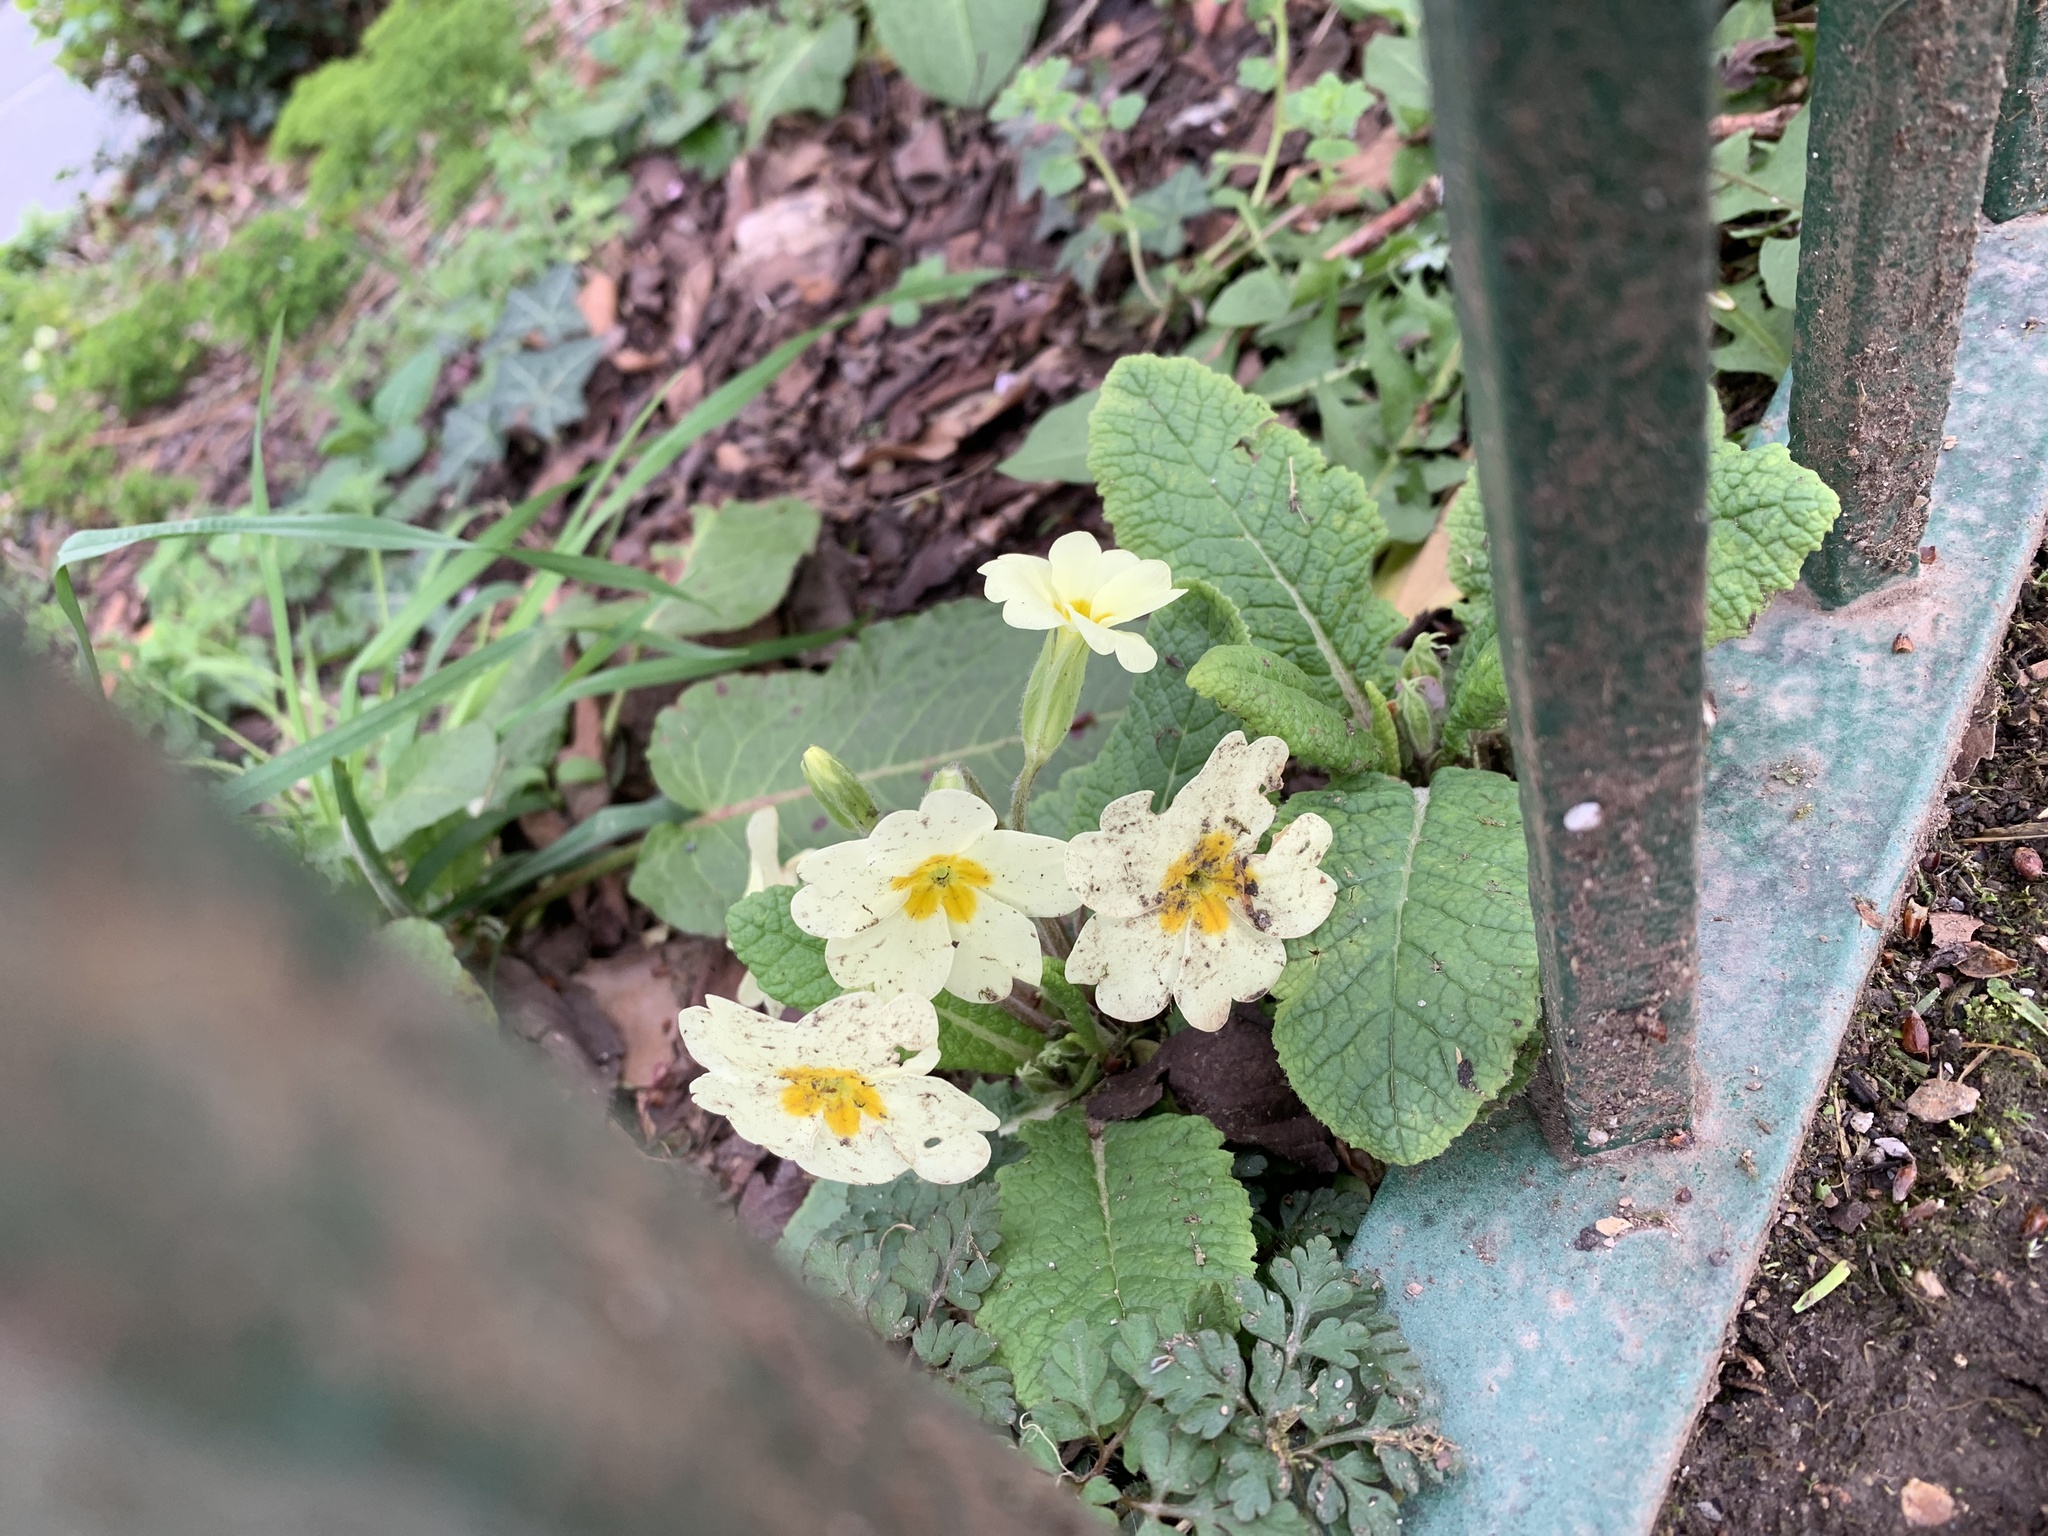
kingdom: Plantae
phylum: Tracheophyta
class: Magnoliopsida
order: Ericales
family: Primulaceae
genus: Primula
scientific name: Primula vulgaris
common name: Primrose
